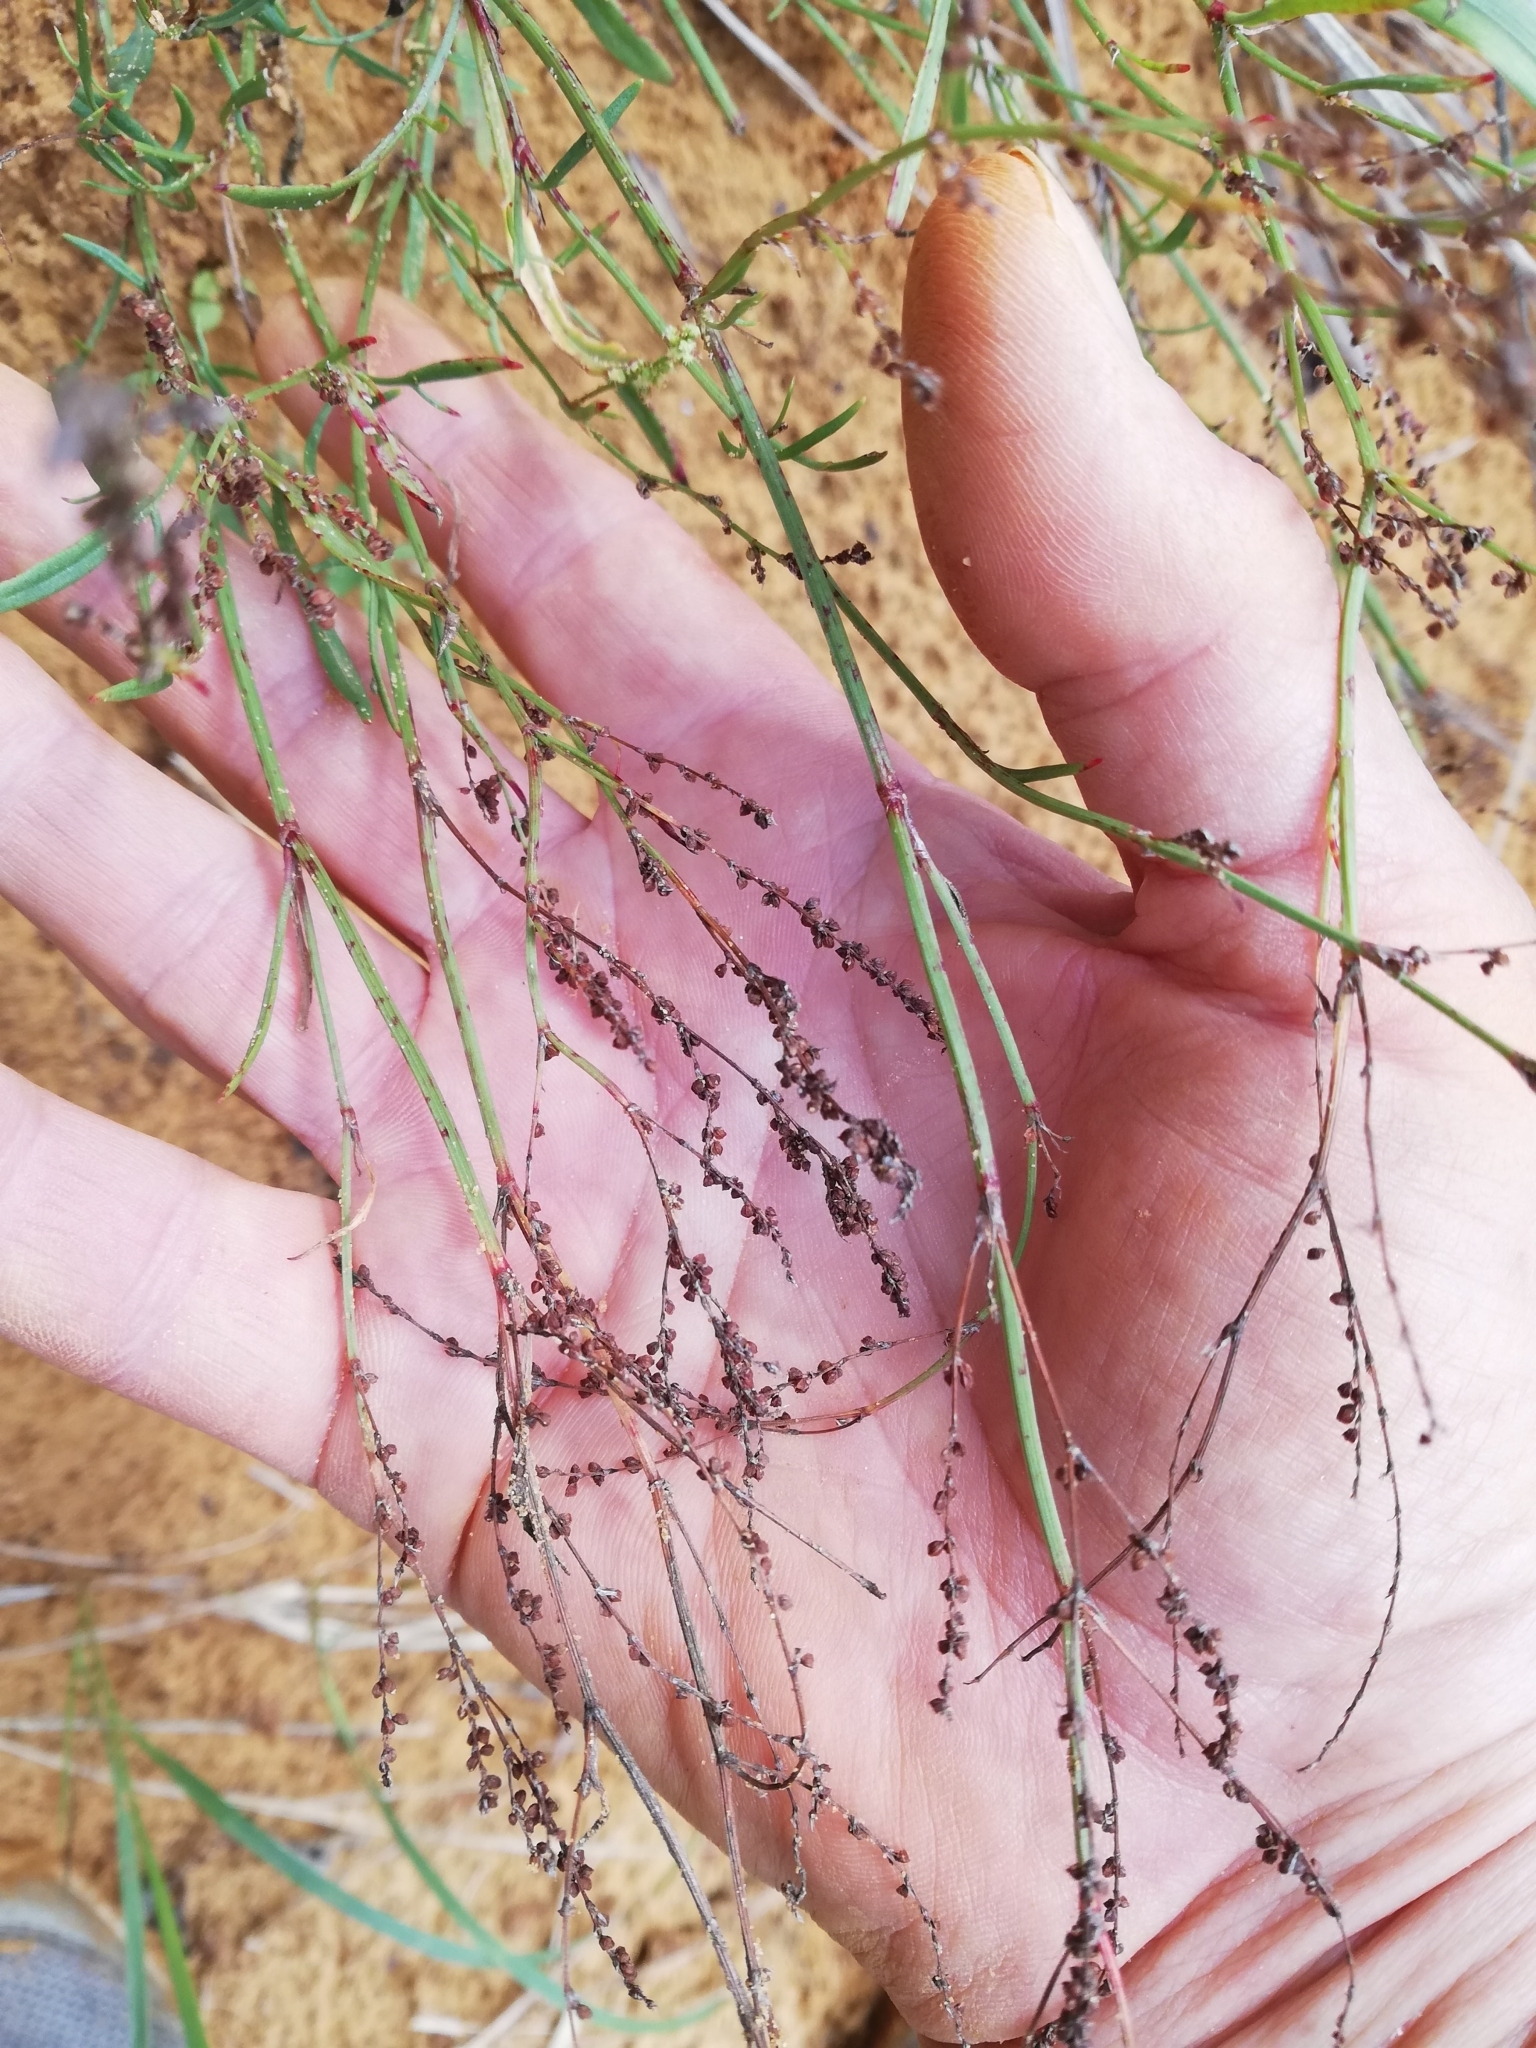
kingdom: Plantae
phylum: Tracheophyta
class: Magnoliopsida
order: Caryophyllales
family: Polygonaceae
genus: Rumex
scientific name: Rumex acetosella
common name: Common sheep sorrel
